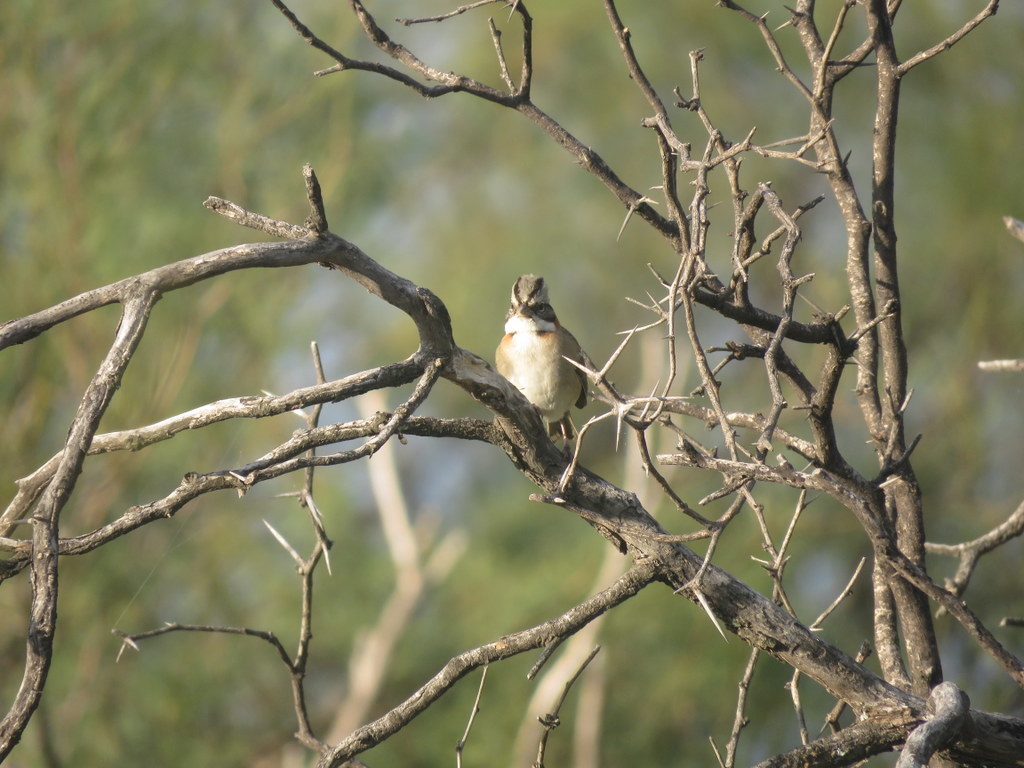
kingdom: Animalia
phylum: Chordata
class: Aves
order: Passeriformes
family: Passerellidae
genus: Zonotrichia
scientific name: Zonotrichia capensis
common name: Rufous-collared sparrow
